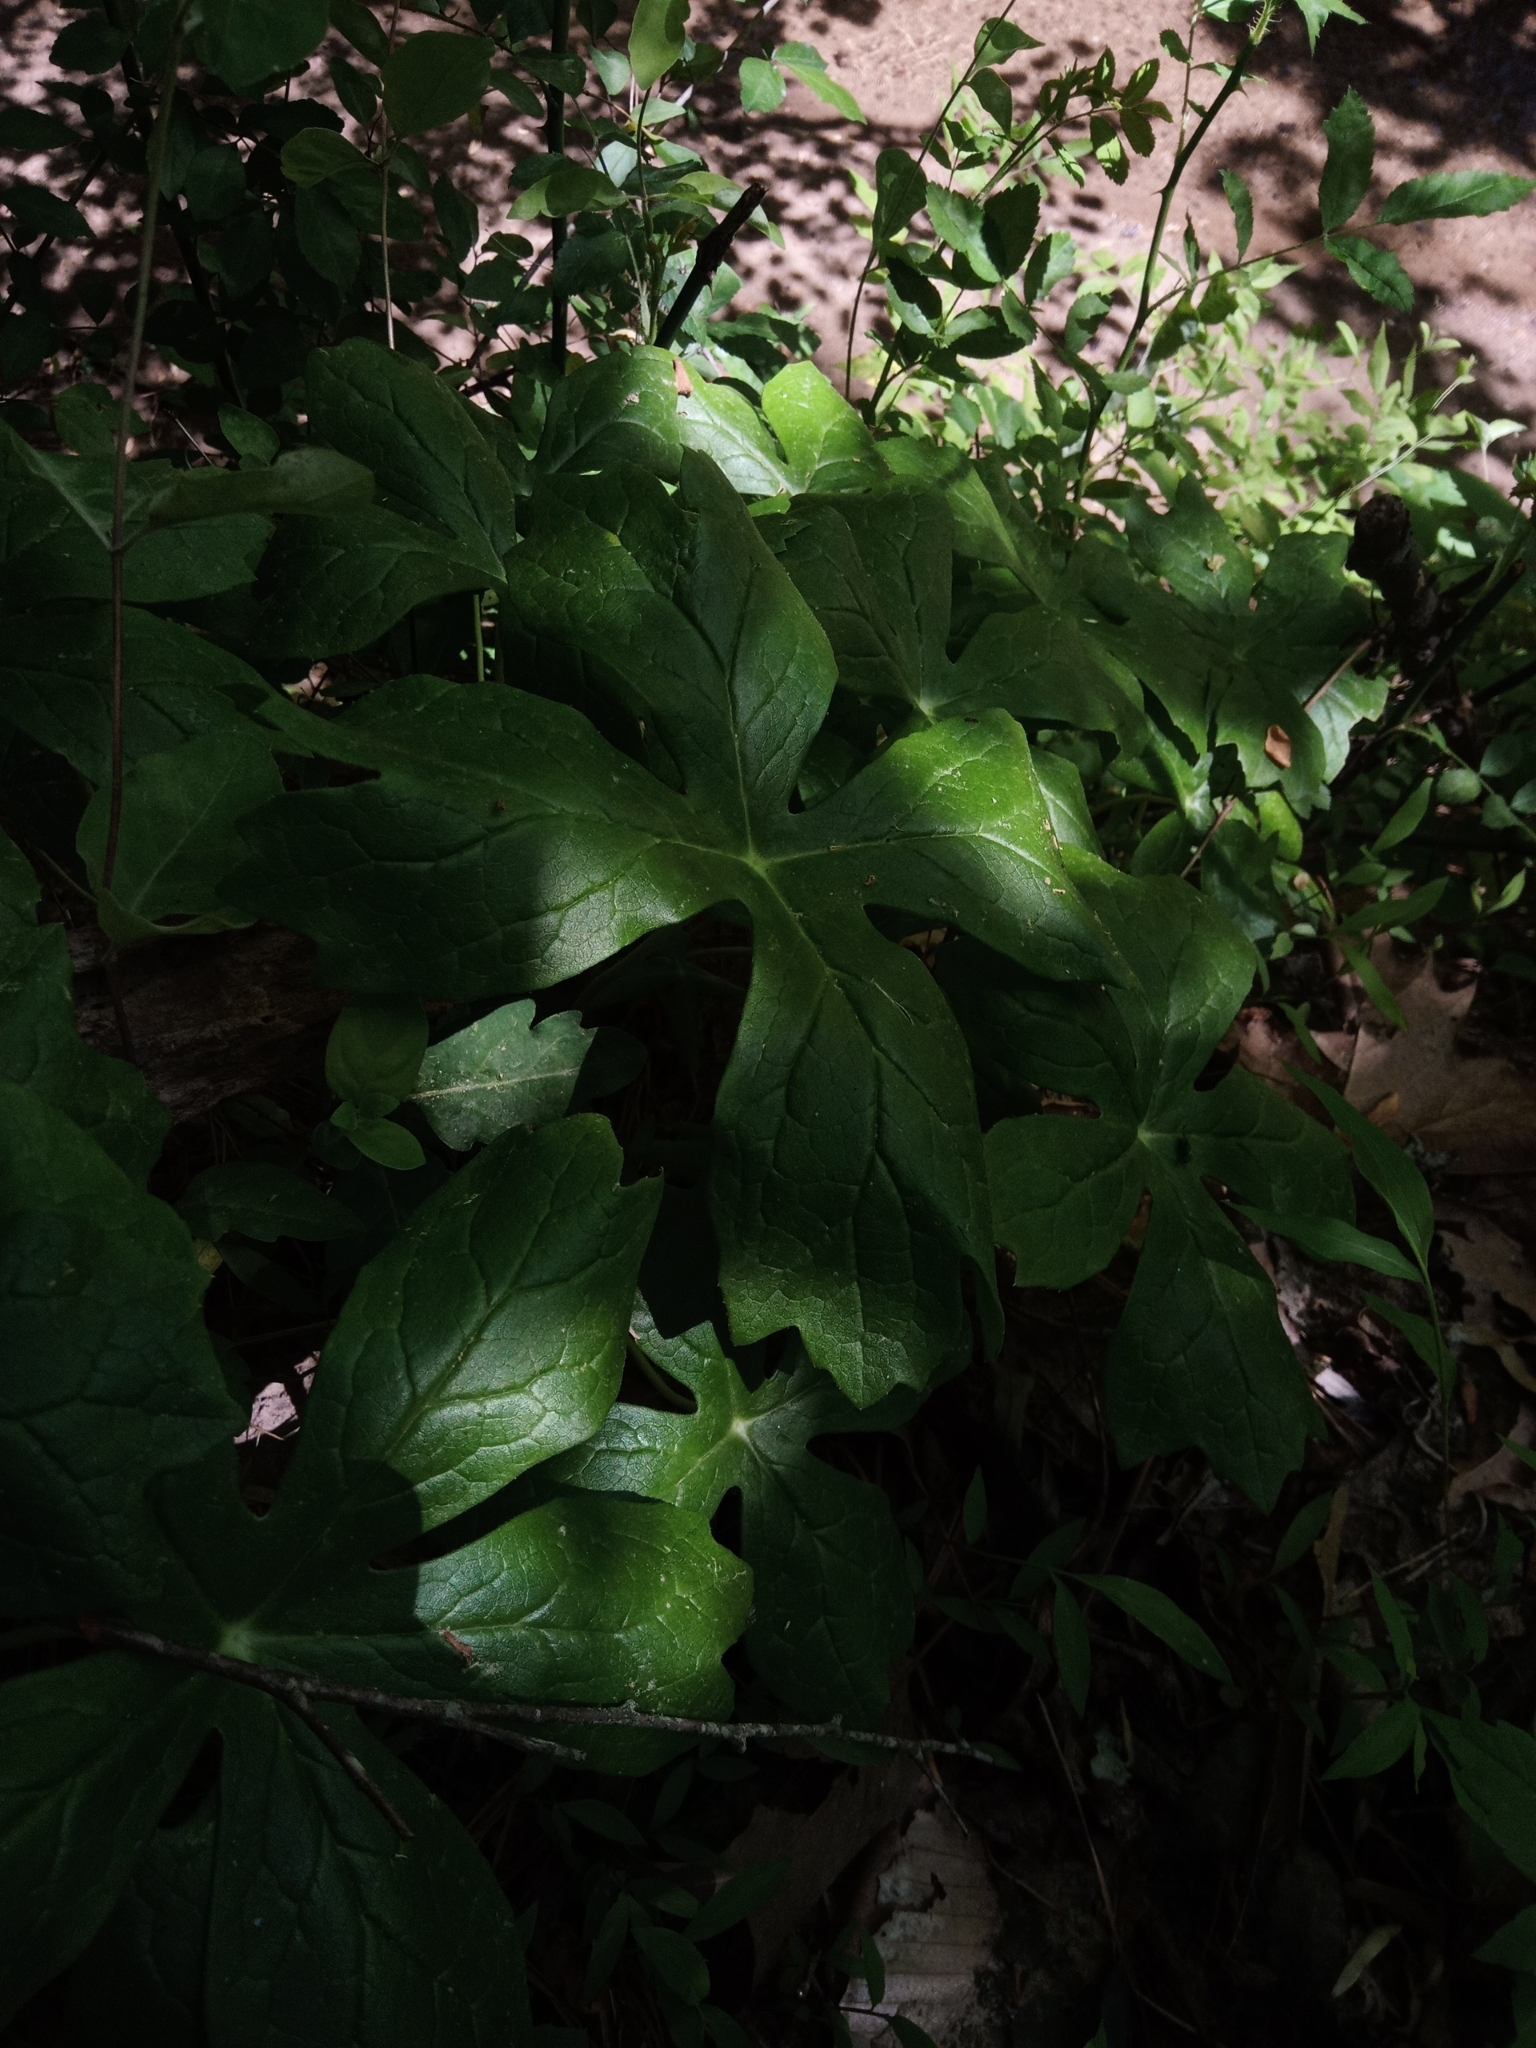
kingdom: Plantae
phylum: Tracheophyta
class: Magnoliopsida
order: Ranunculales
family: Berberidaceae
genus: Podophyllum
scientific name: Podophyllum peltatum
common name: Wild mandrake
